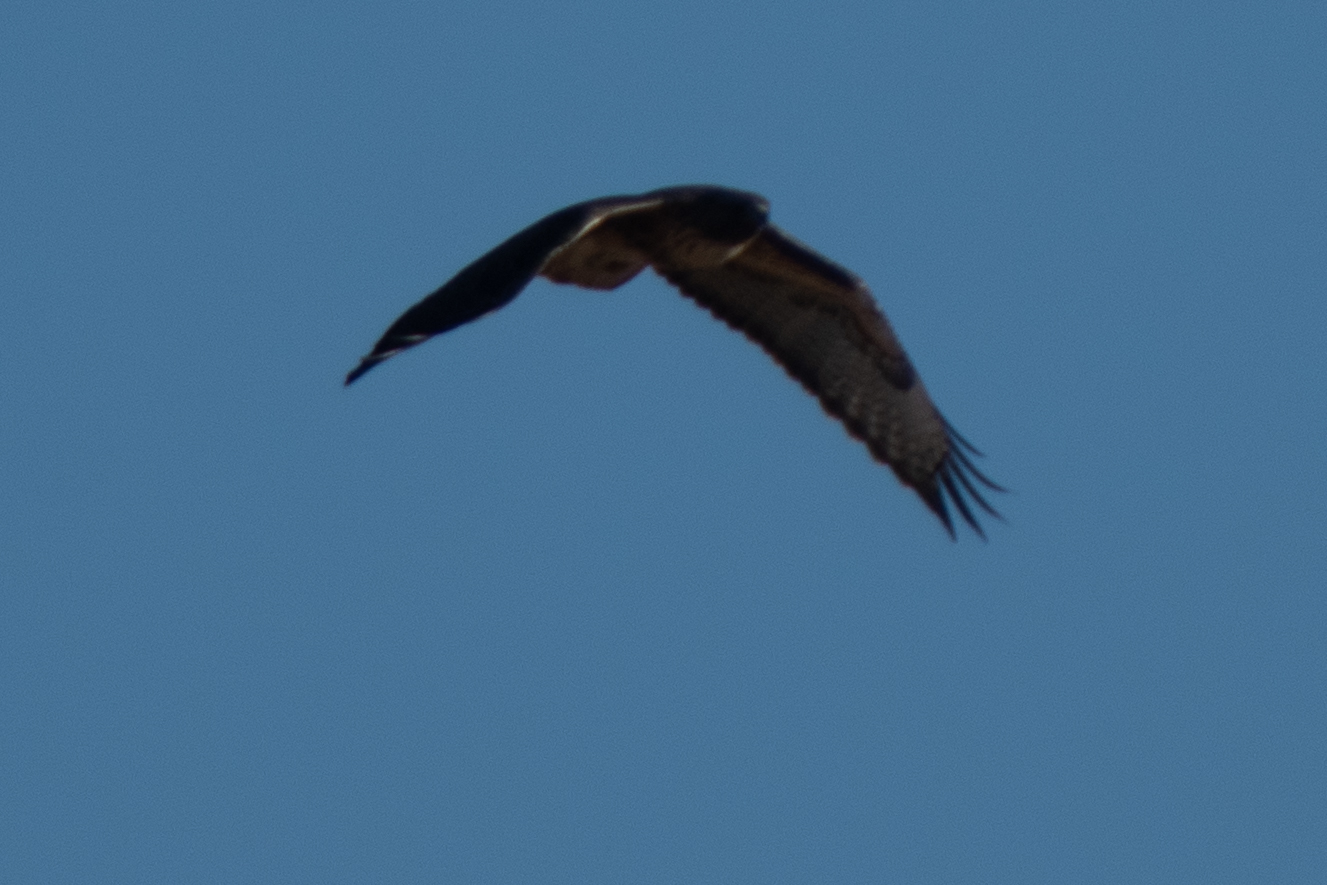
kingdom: Animalia
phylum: Chordata
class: Aves
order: Accipitriformes
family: Accipitridae
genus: Buteo
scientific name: Buteo jamaicensis
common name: Red-tailed hawk
